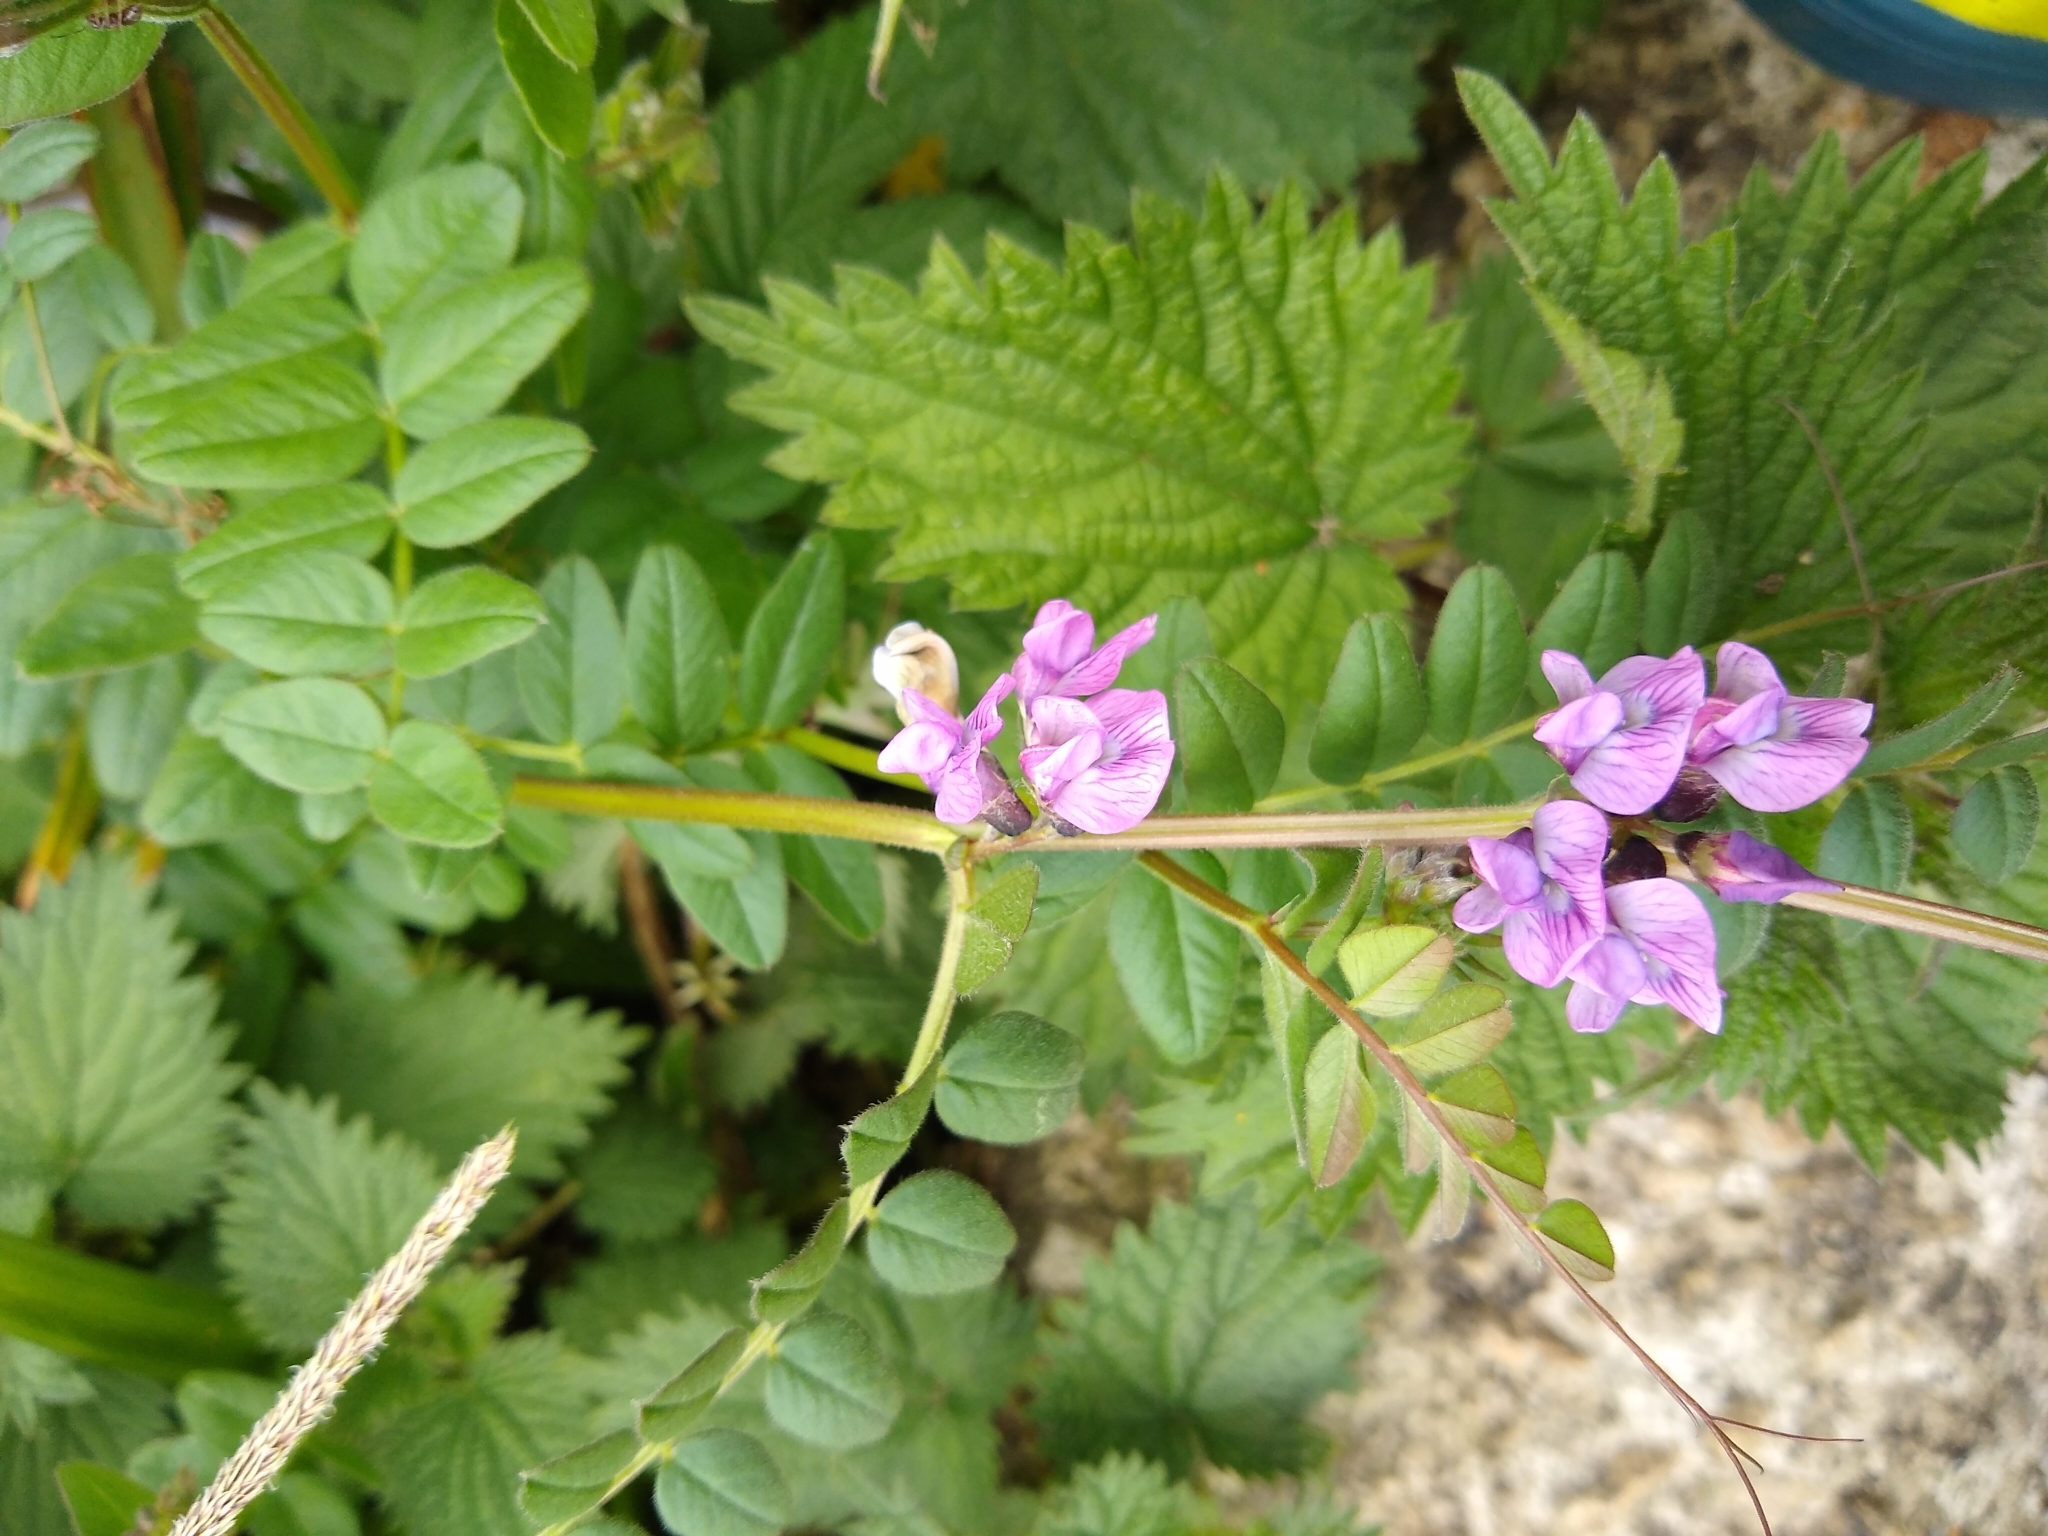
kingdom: Plantae
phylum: Tracheophyta
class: Magnoliopsida
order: Fabales
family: Fabaceae
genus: Vicia
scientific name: Vicia sepium
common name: Bush vetch
